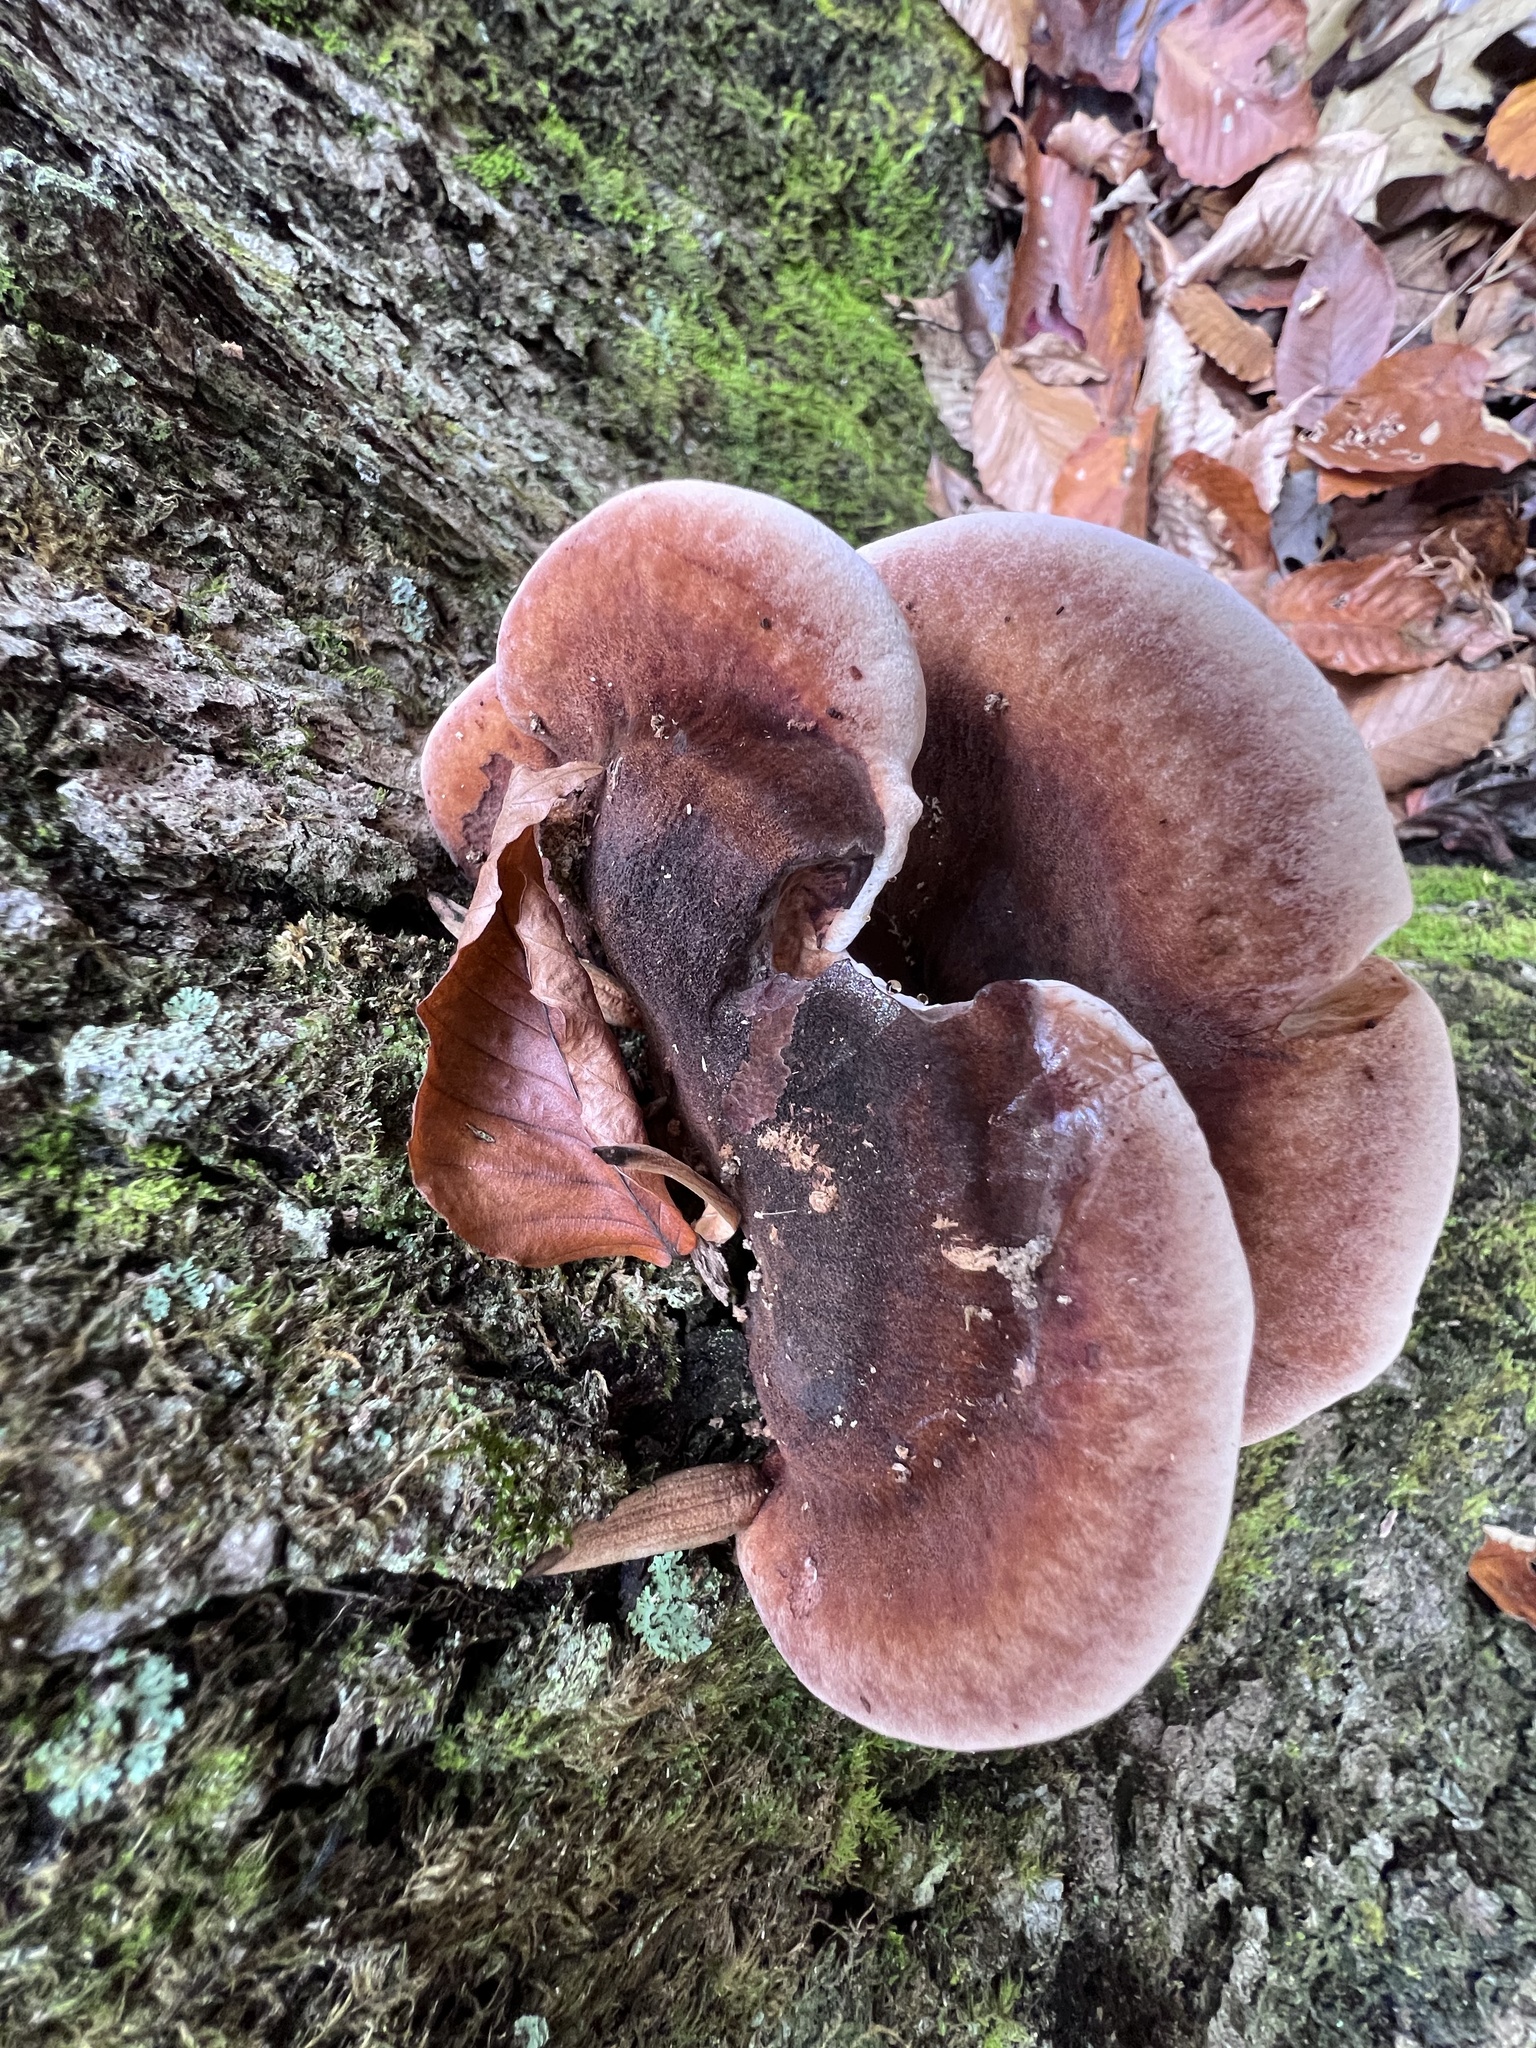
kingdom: Fungi
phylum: Basidiomycota
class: Agaricomycetes
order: Polyporales
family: Ischnodermataceae
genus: Ischnoderma
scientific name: Ischnoderma resinosum
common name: Resinous polypore
